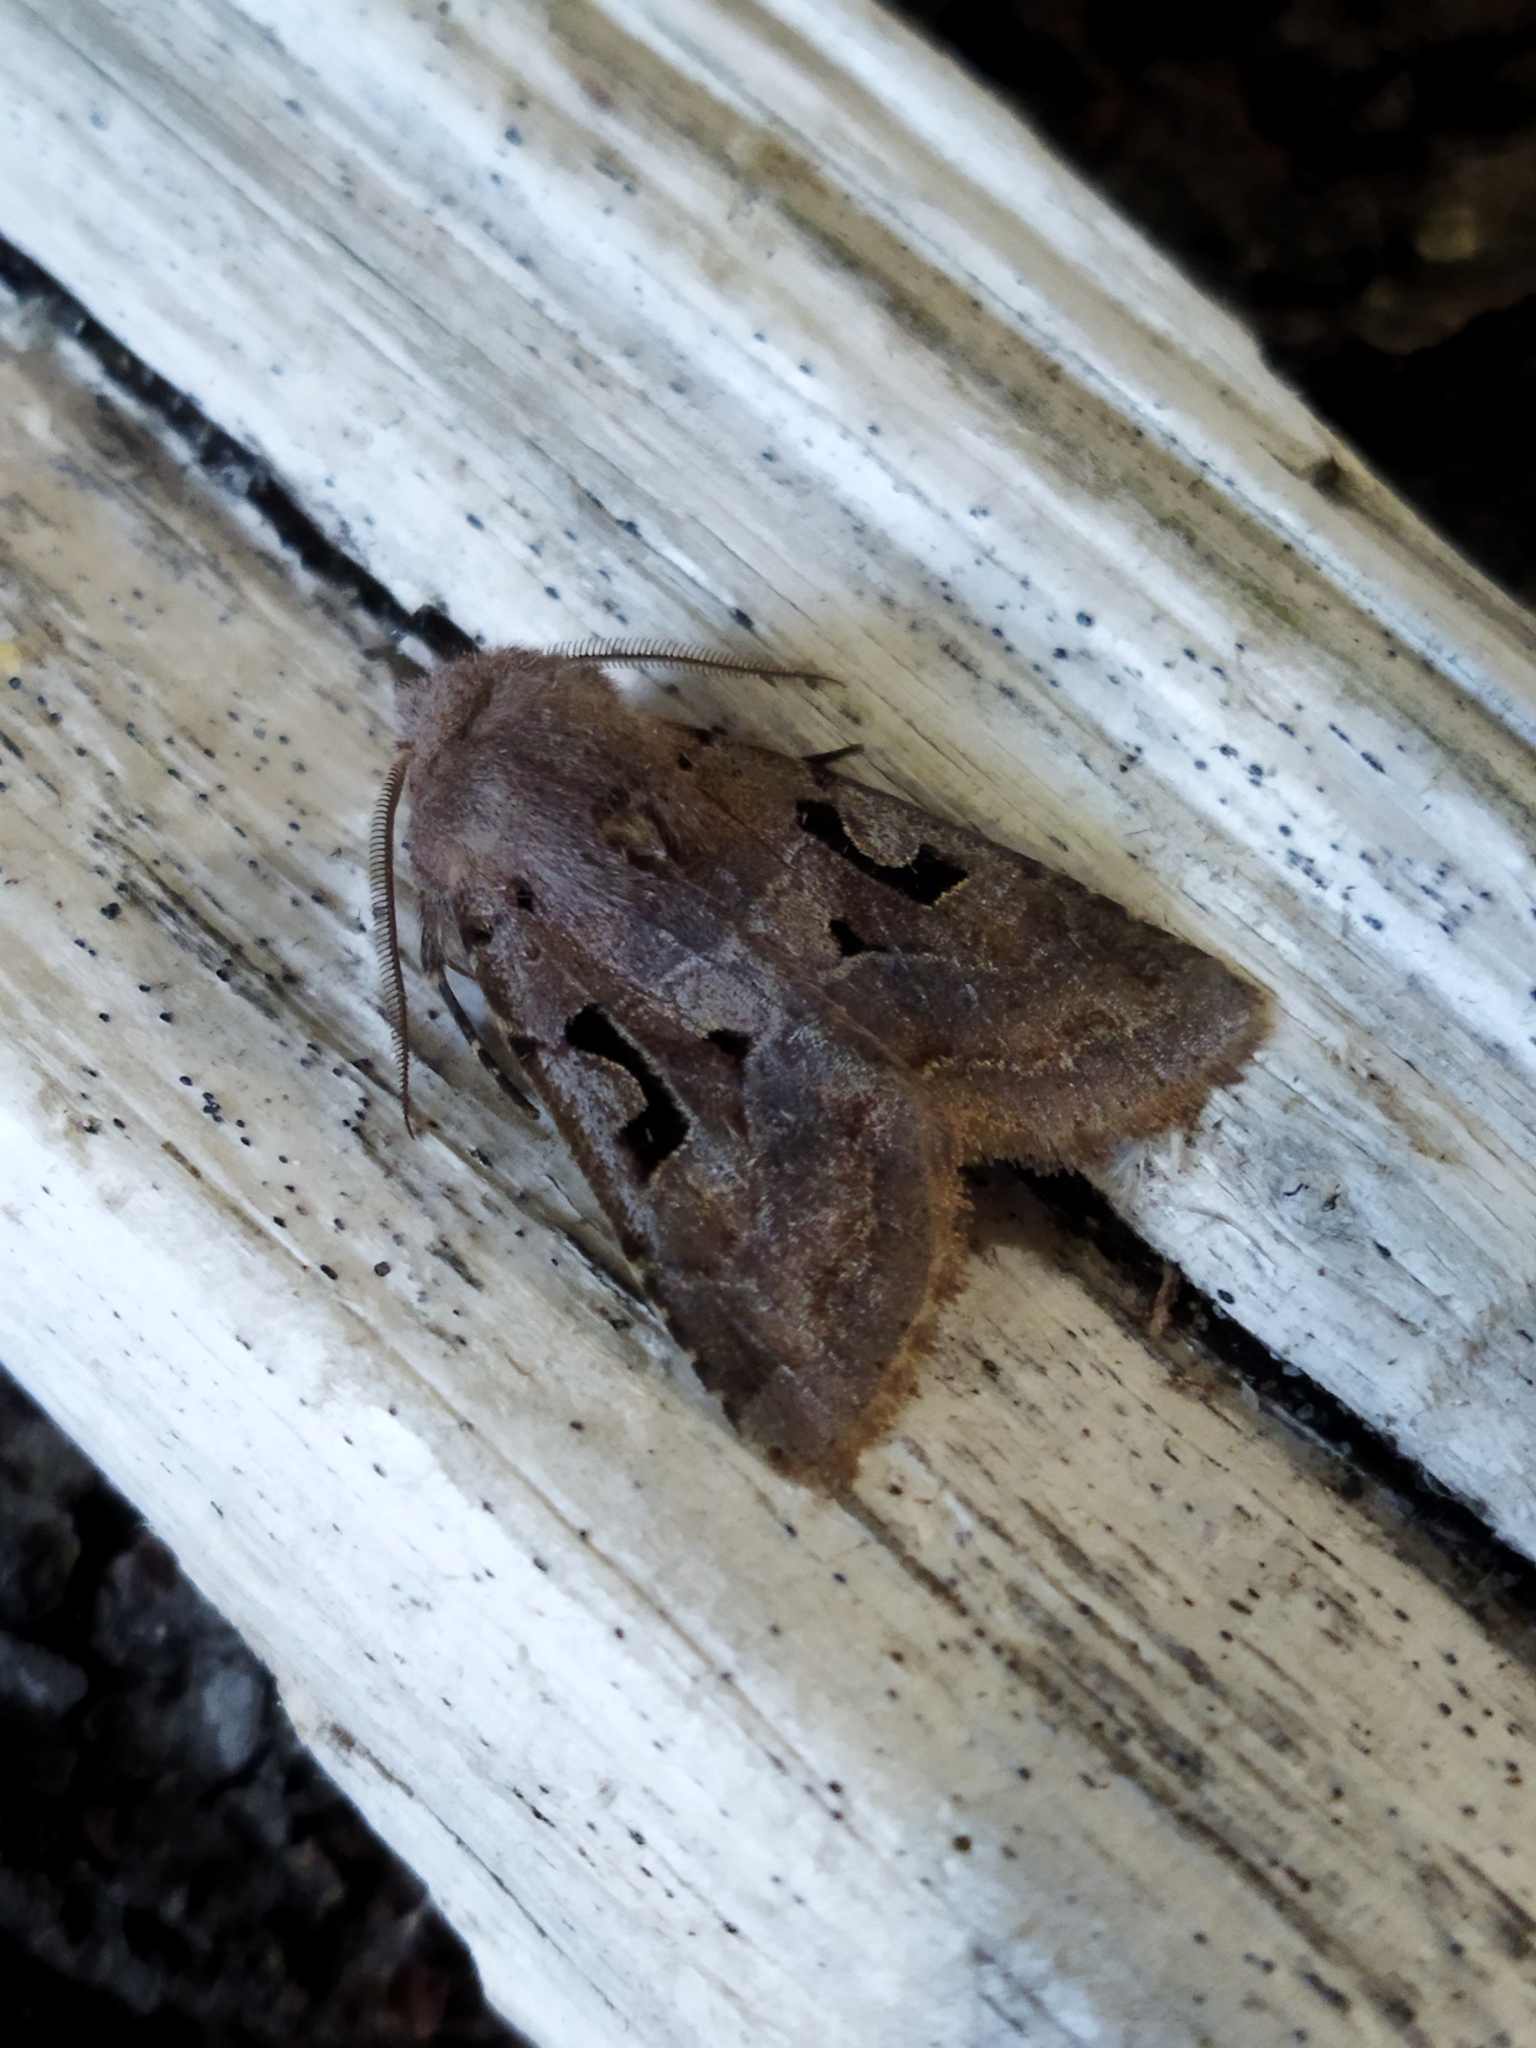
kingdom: Animalia
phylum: Arthropoda
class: Insecta
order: Lepidoptera
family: Noctuidae
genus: Orthosia
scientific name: Orthosia gothica
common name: Hebrew character
